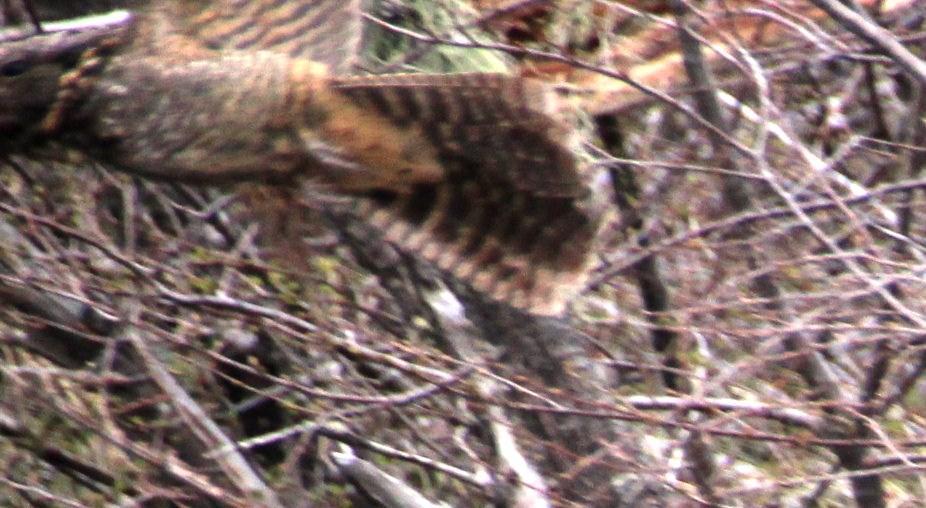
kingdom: Animalia
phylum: Chordata
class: Aves
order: Caprimulgiformes
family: Caprimulgidae
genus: Systellura
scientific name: Systellura longirostris
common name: Band-winged nightjar
